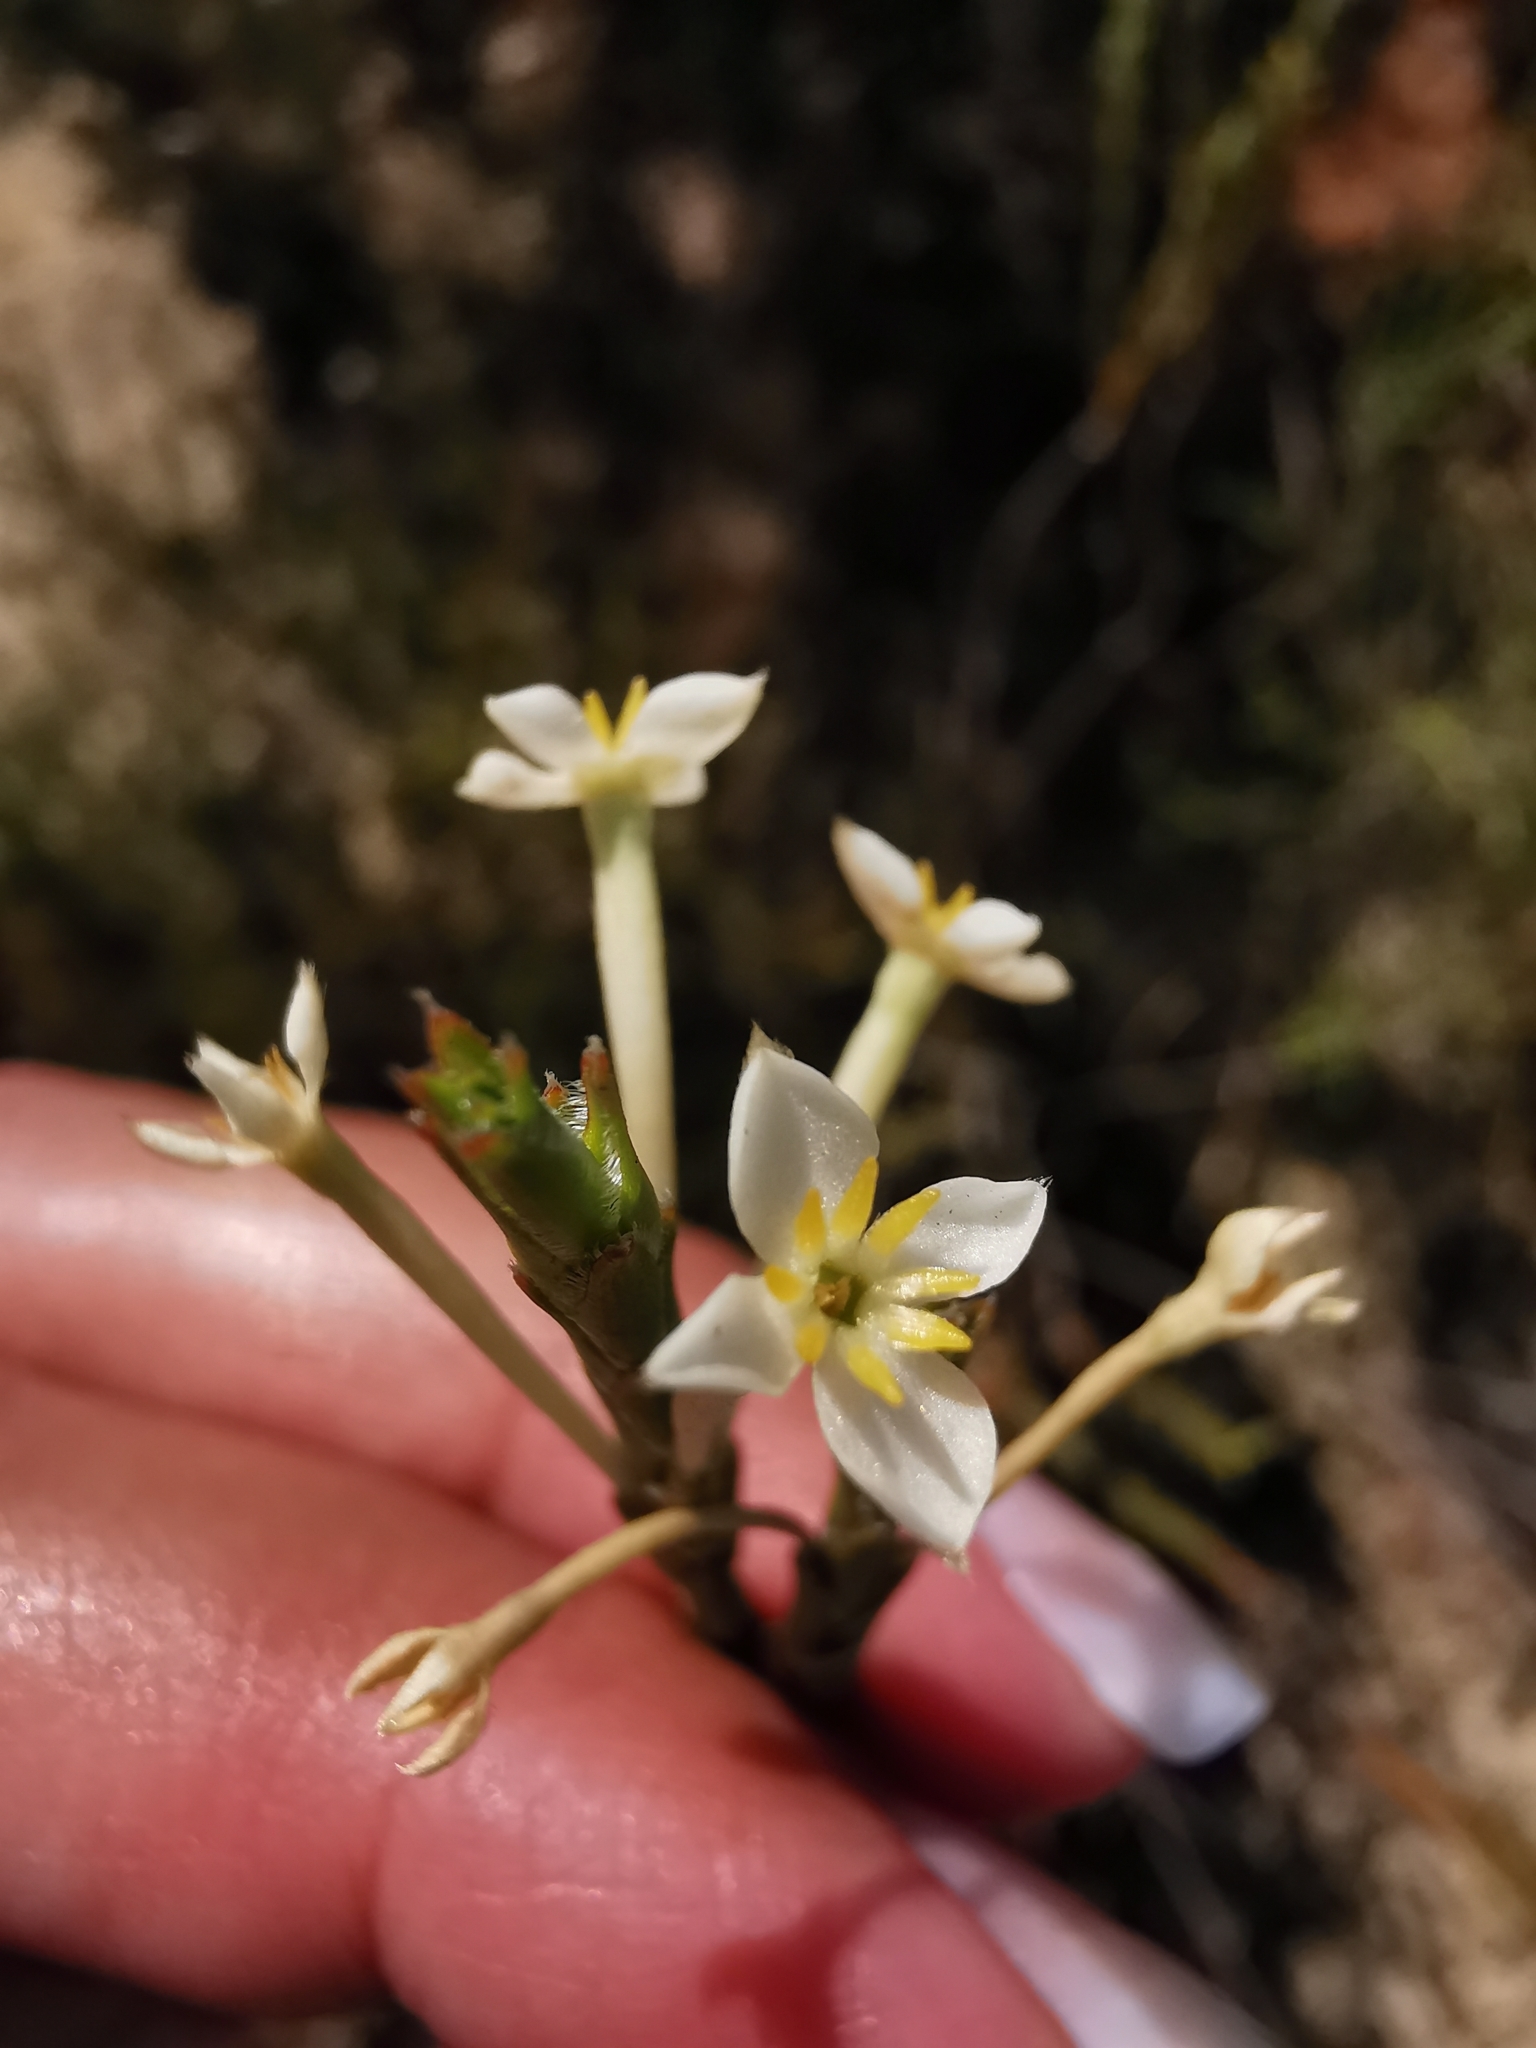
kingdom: Plantae
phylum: Tracheophyta
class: Magnoliopsida
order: Malvales
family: Thymelaeaceae
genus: Struthiola
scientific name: Struthiola ciliata
